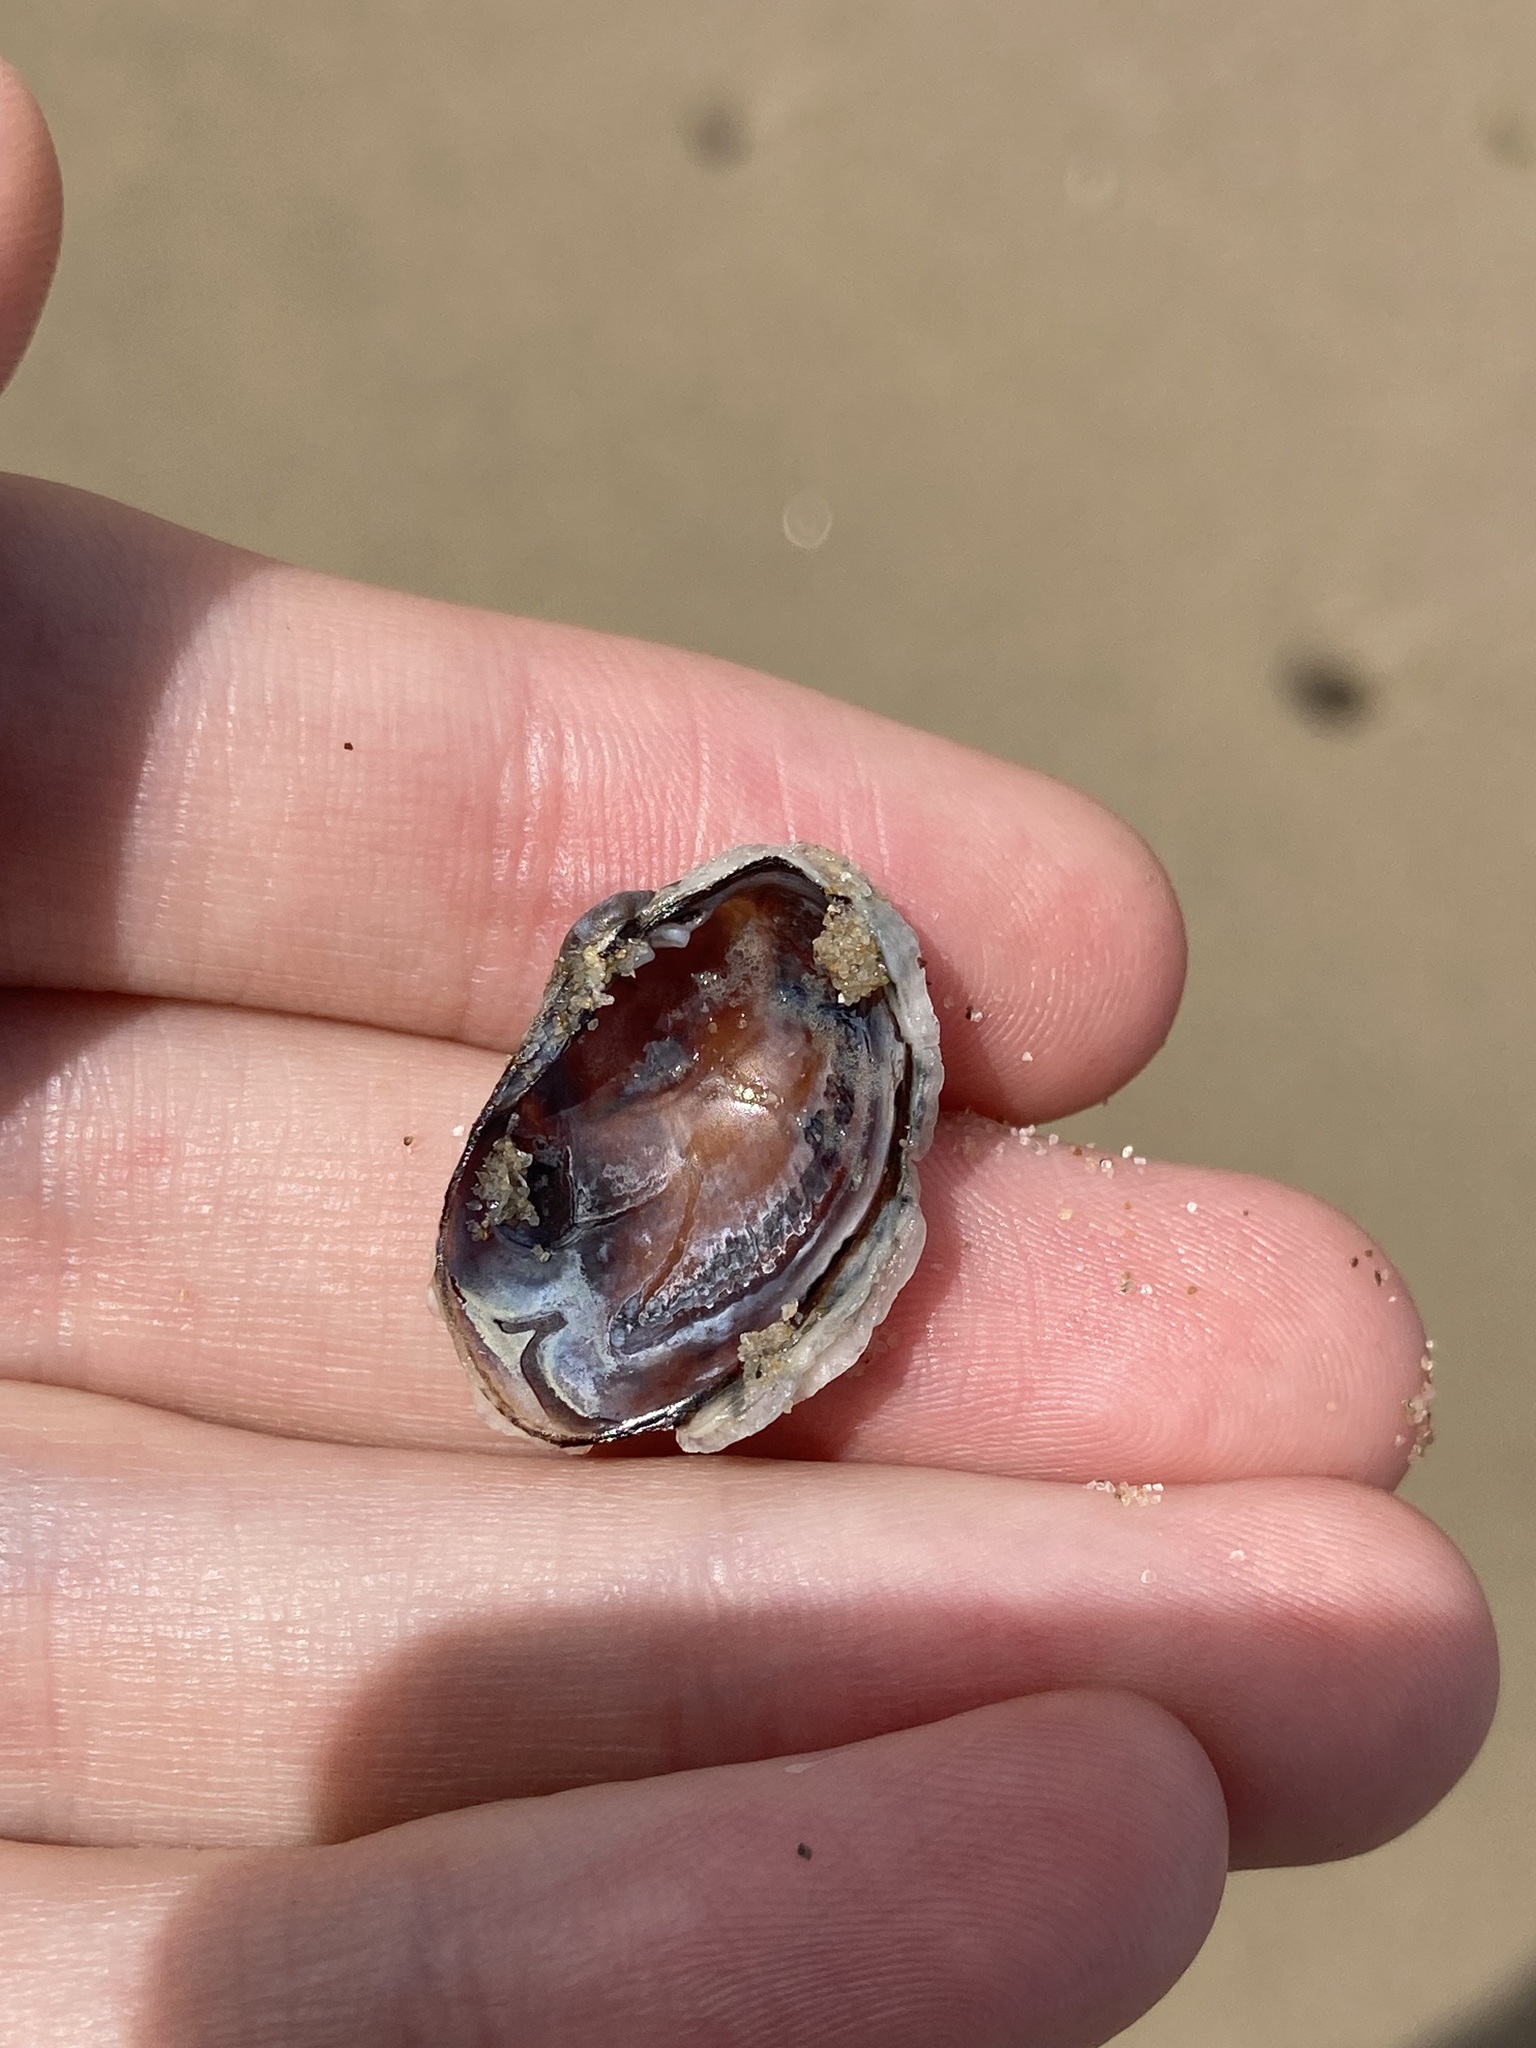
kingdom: Animalia
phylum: Mollusca
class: Bivalvia
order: Venerida
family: Veneridae
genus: Irus
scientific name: Irus cumingii
